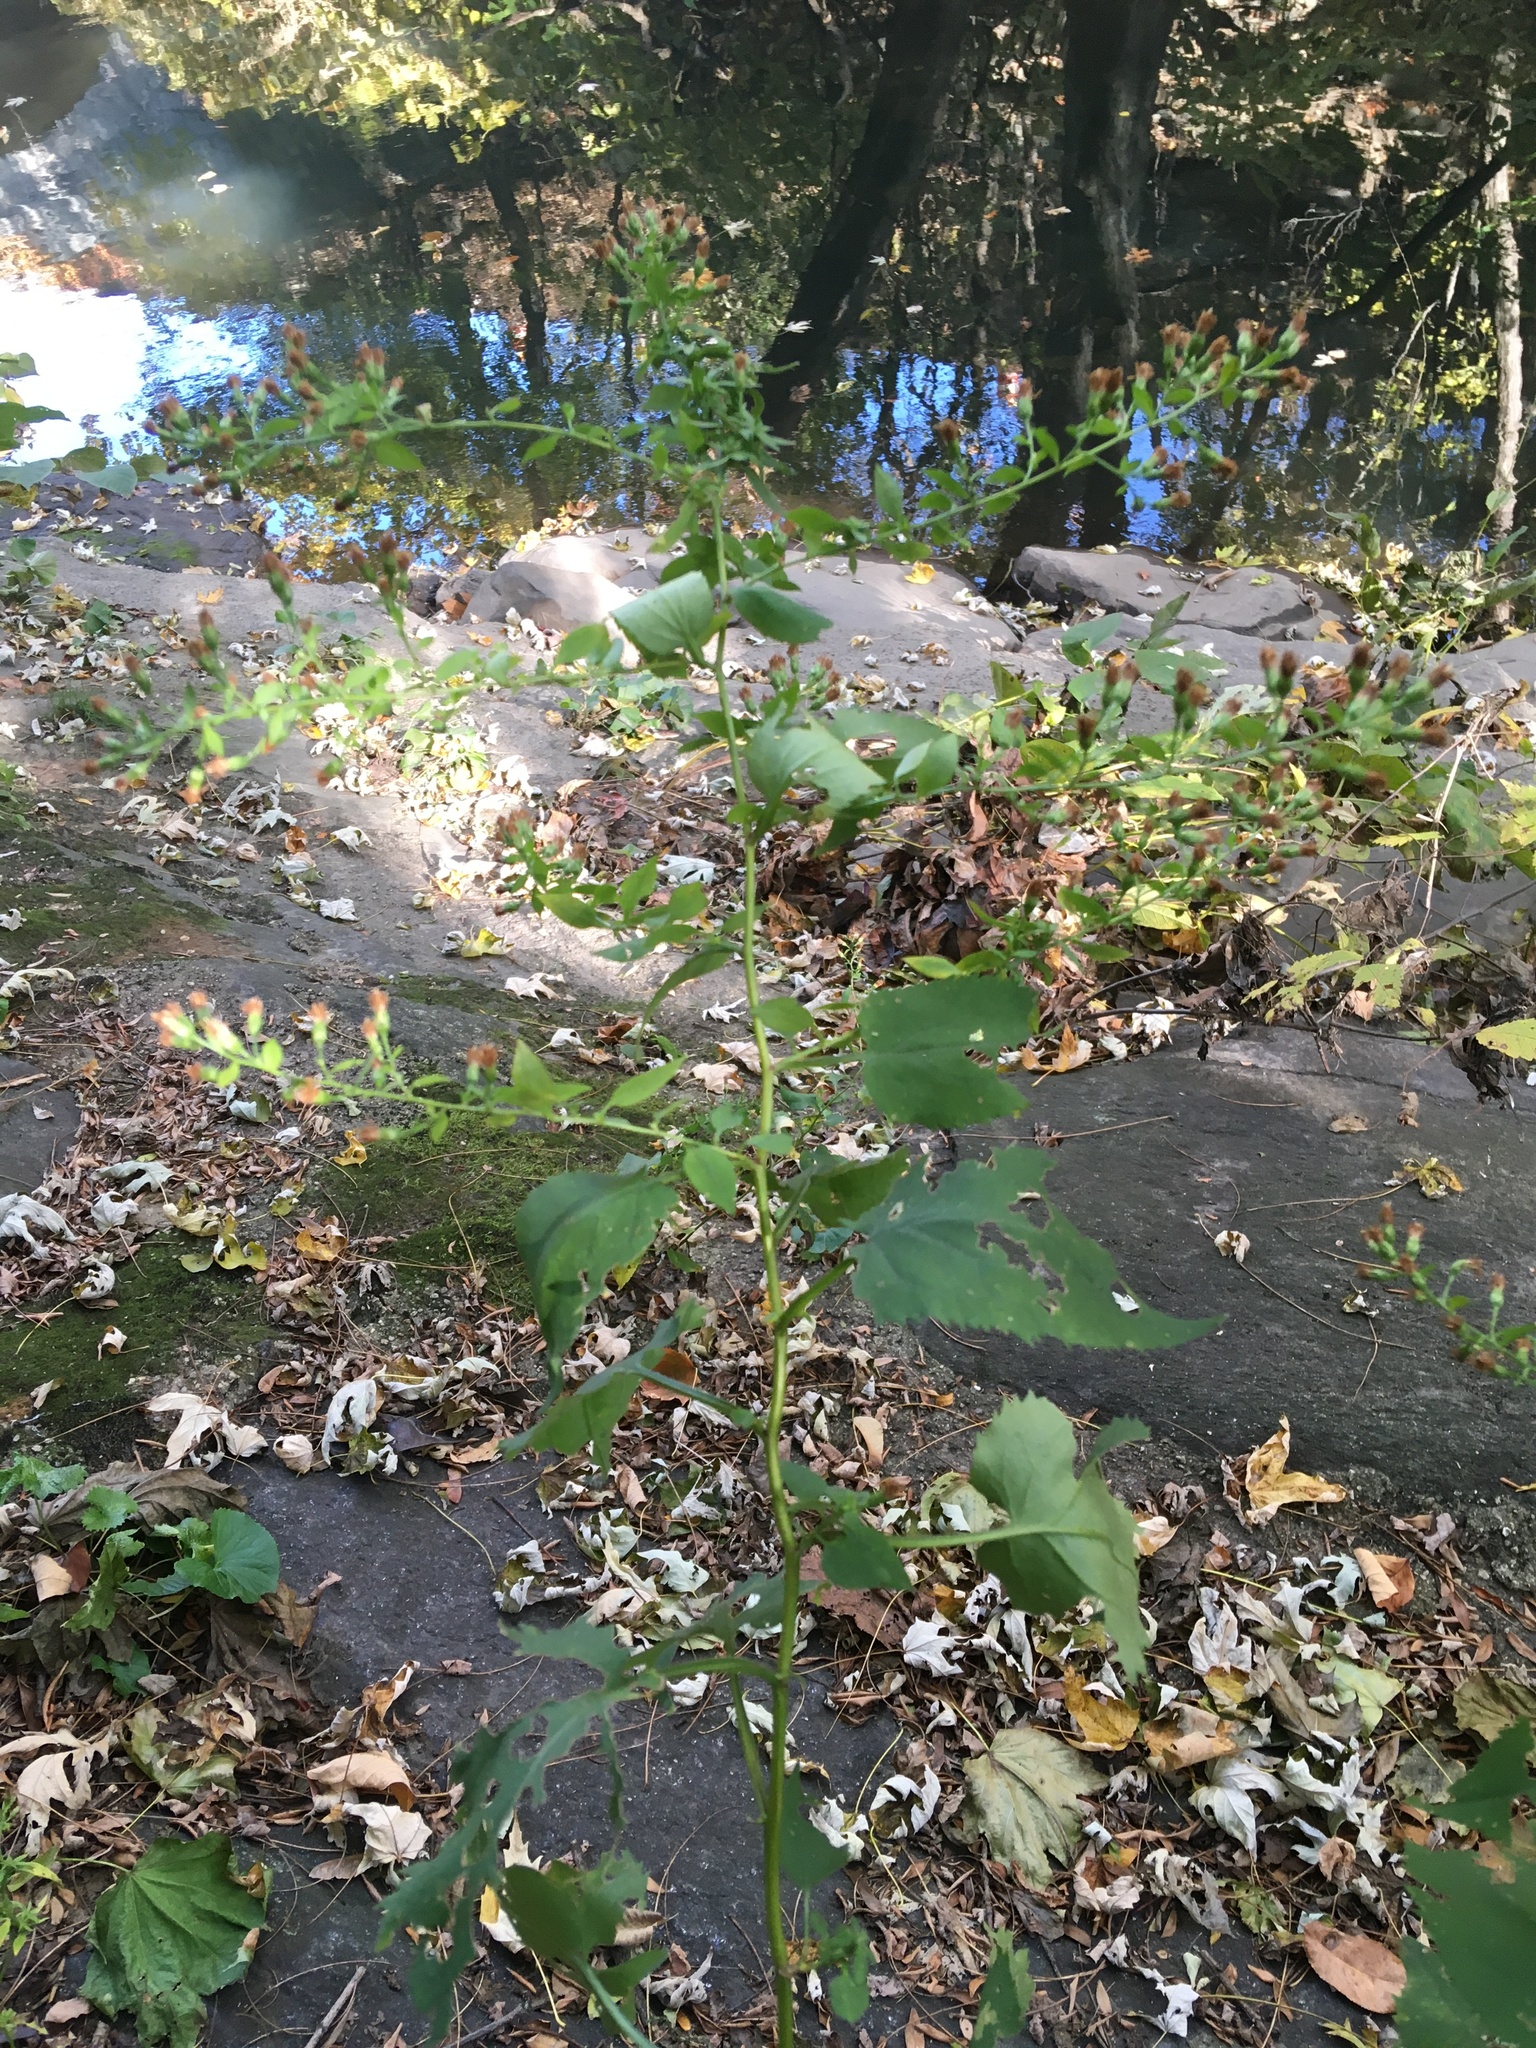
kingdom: Plantae
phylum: Tracheophyta
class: Magnoliopsida
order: Asterales
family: Asteraceae
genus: Symphyotrichum
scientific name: Symphyotrichum cordifolium
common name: Beeweed
